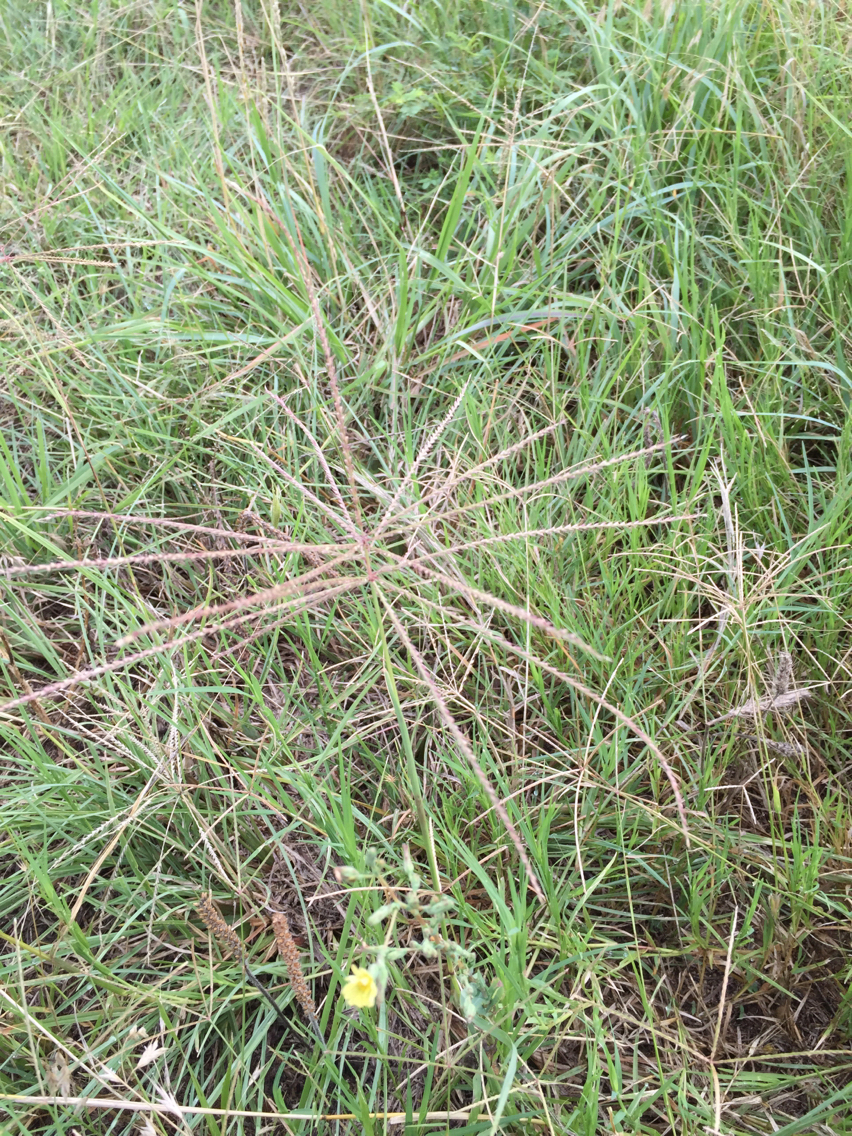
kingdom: Plantae
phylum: Tracheophyta
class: Liliopsida
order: Poales
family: Poaceae
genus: Chloris
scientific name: Chloris verticillata
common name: Tumble windmill grass
